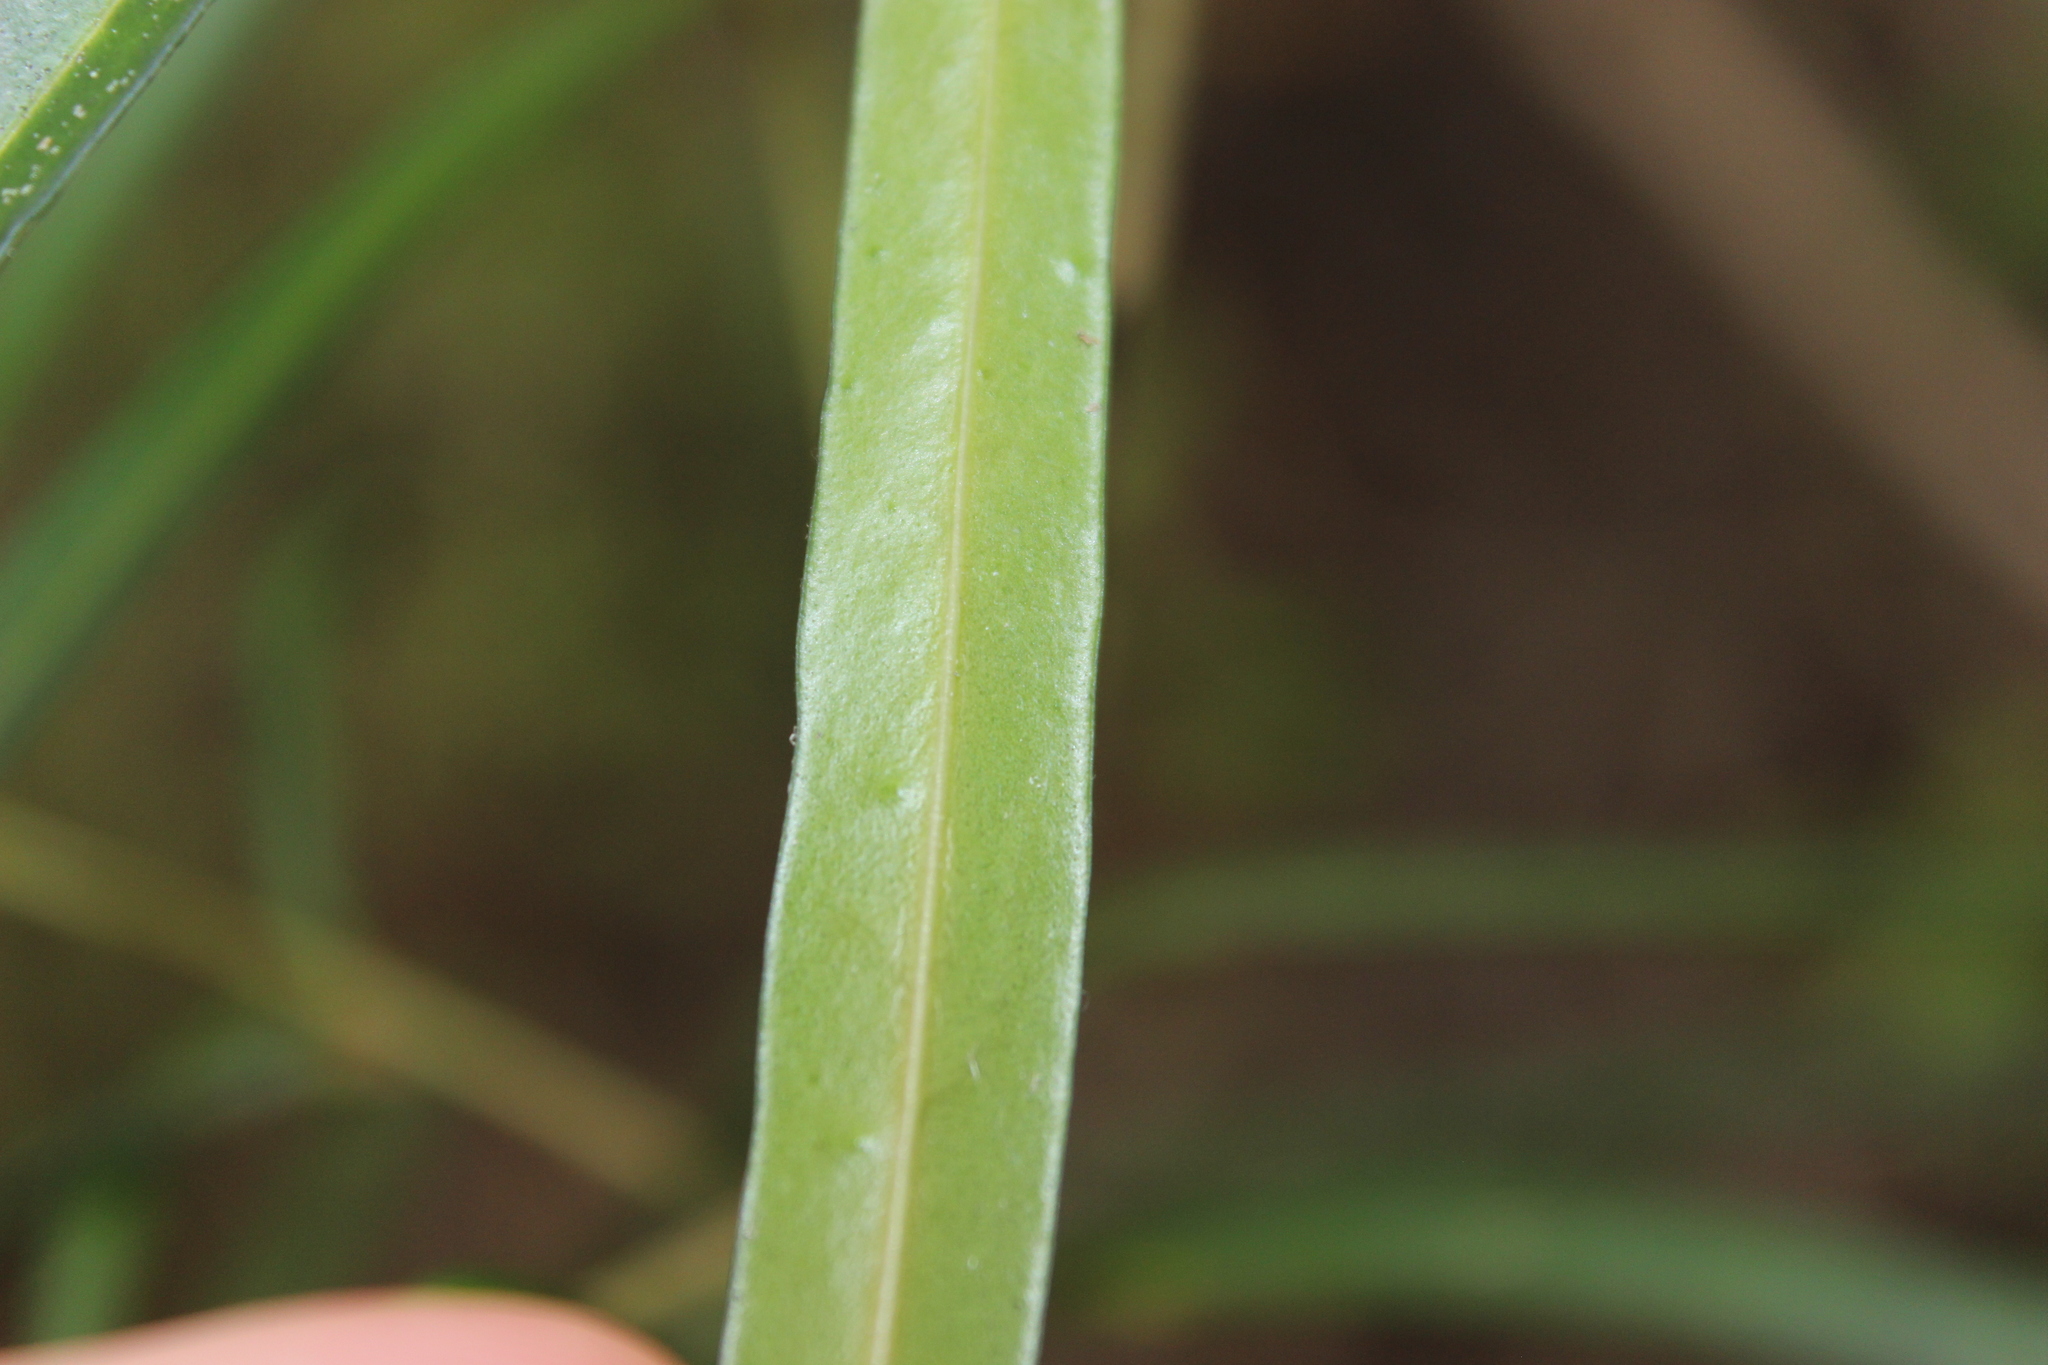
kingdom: Plantae
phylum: Tracheophyta
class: Magnoliopsida
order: Lamiales
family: Oleaceae
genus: Nestegis
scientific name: Nestegis lanceolata
